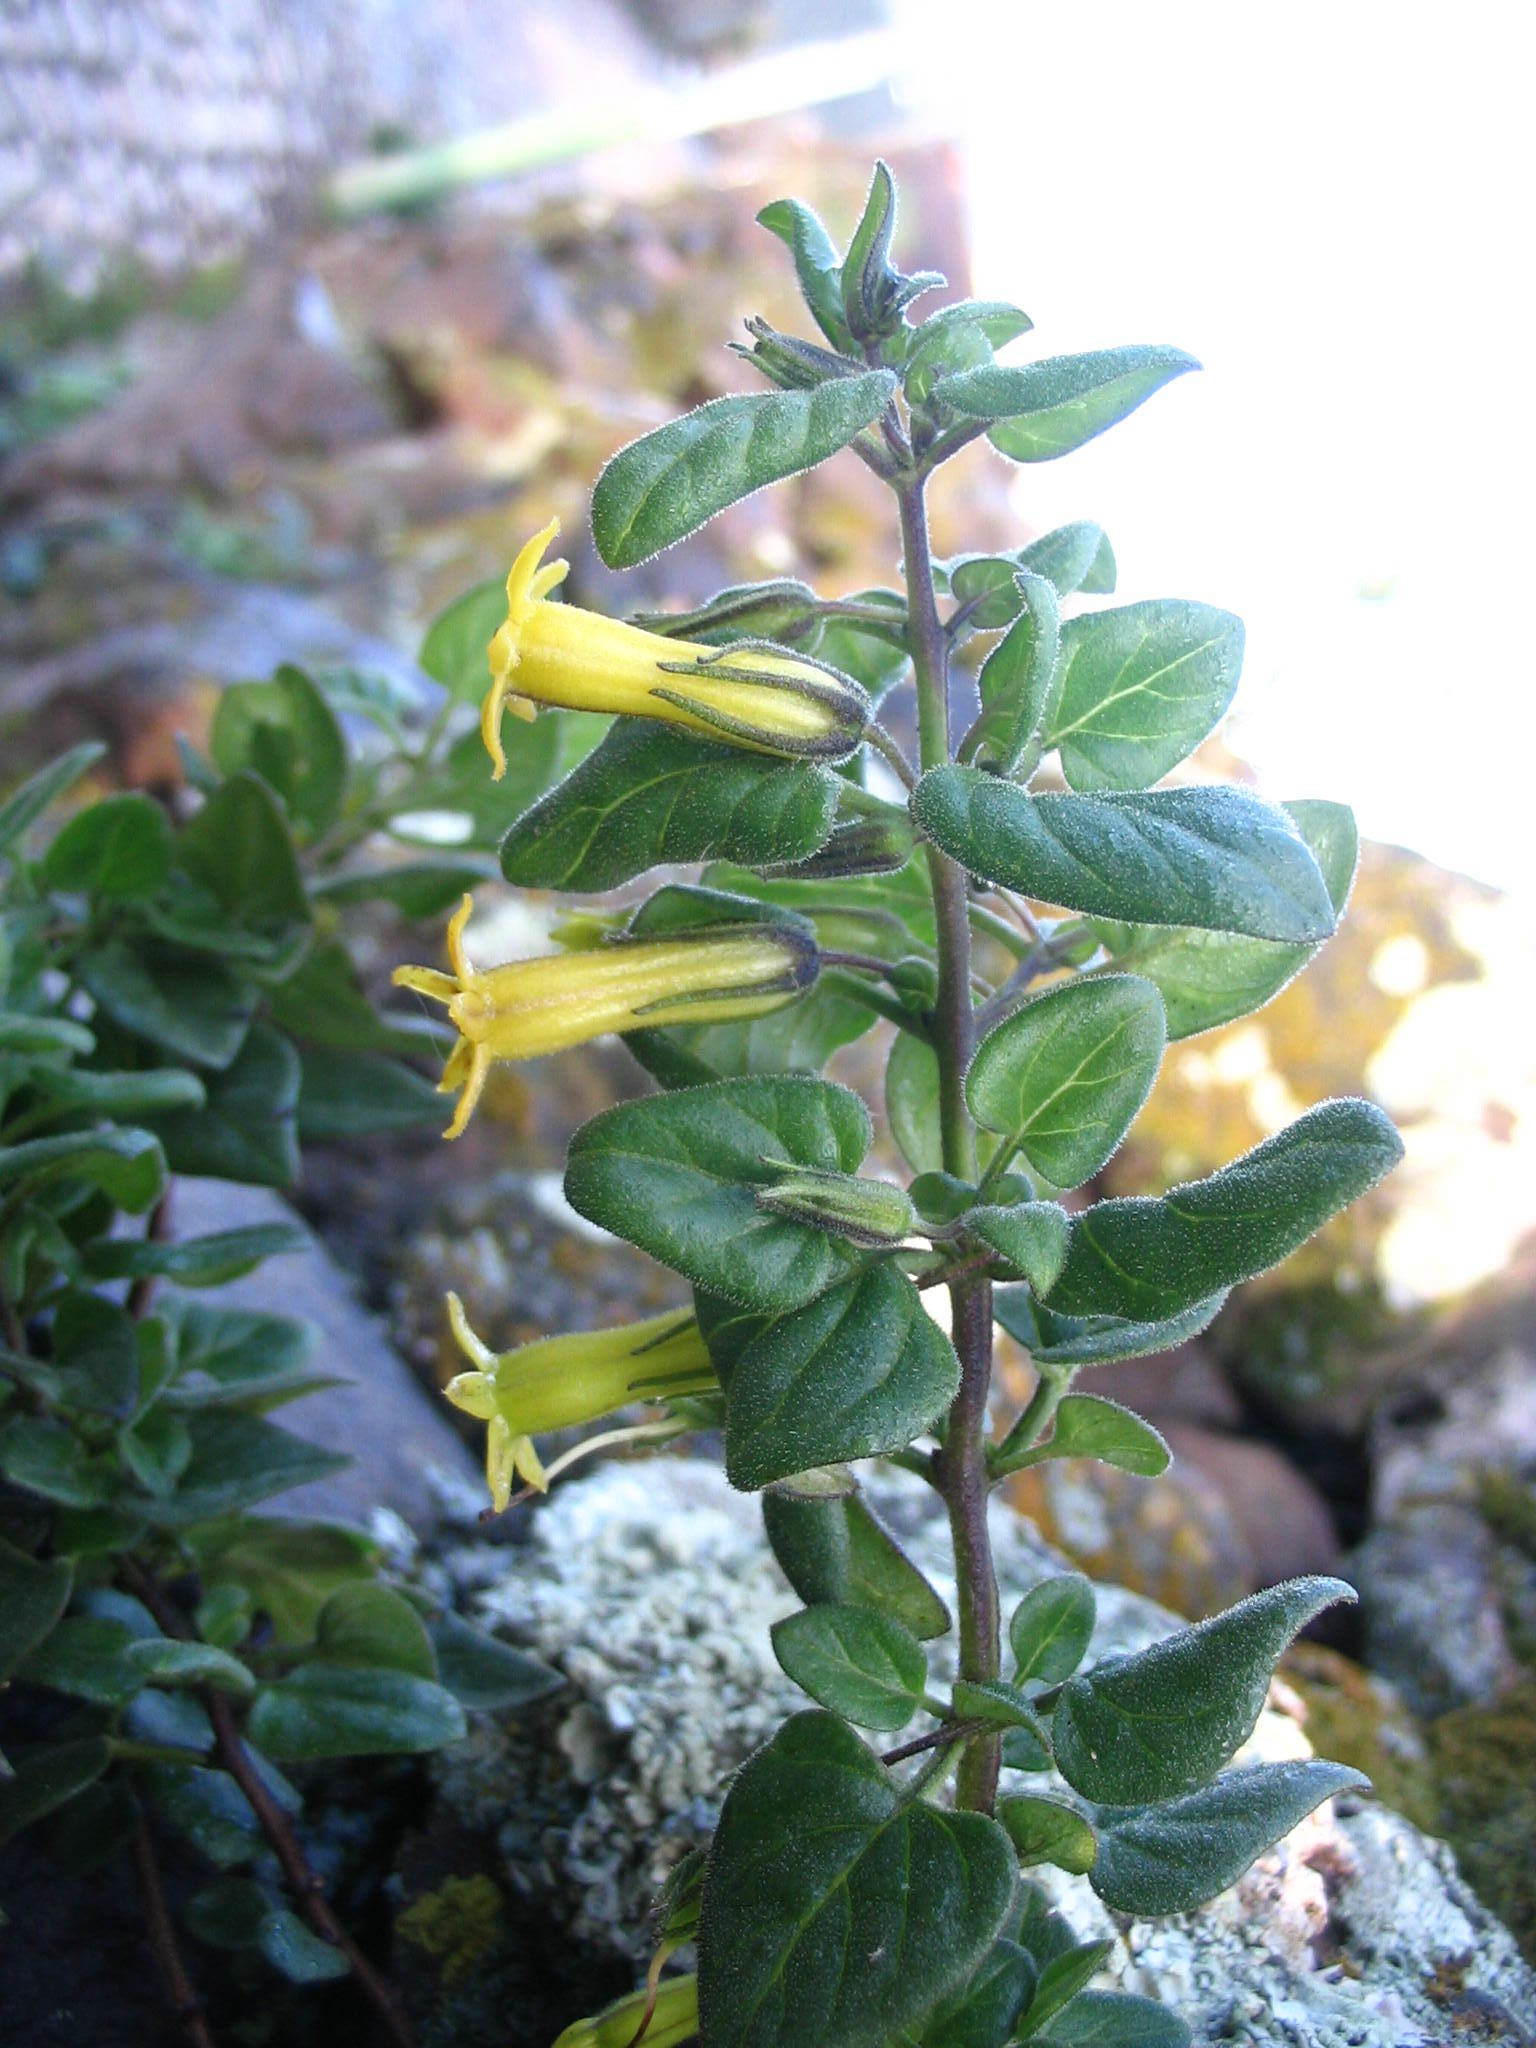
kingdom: Plantae
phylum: Tracheophyta
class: Magnoliopsida
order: Solanales
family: Solanaceae
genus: Salpichroa
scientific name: Salpichroa weberbaueri
